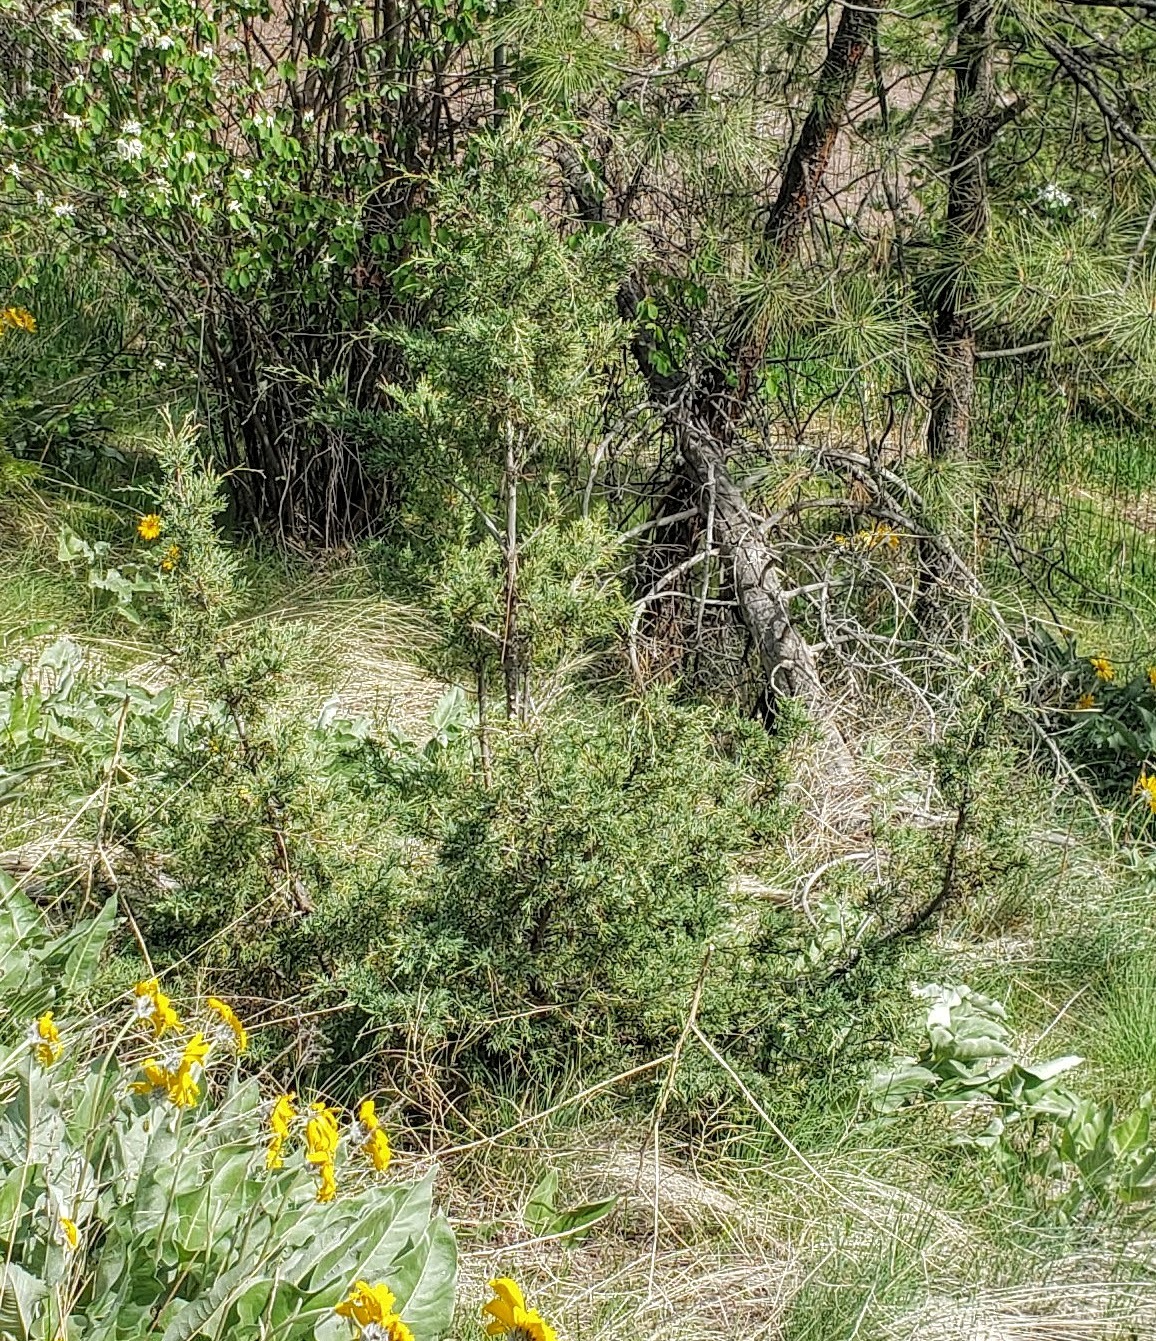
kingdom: Plantae
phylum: Tracheophyta
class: Pinopsida
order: Pinales
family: Cupressaceae
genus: Juniperus
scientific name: Juniperus scopulorum
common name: Rocky mountain juniper
